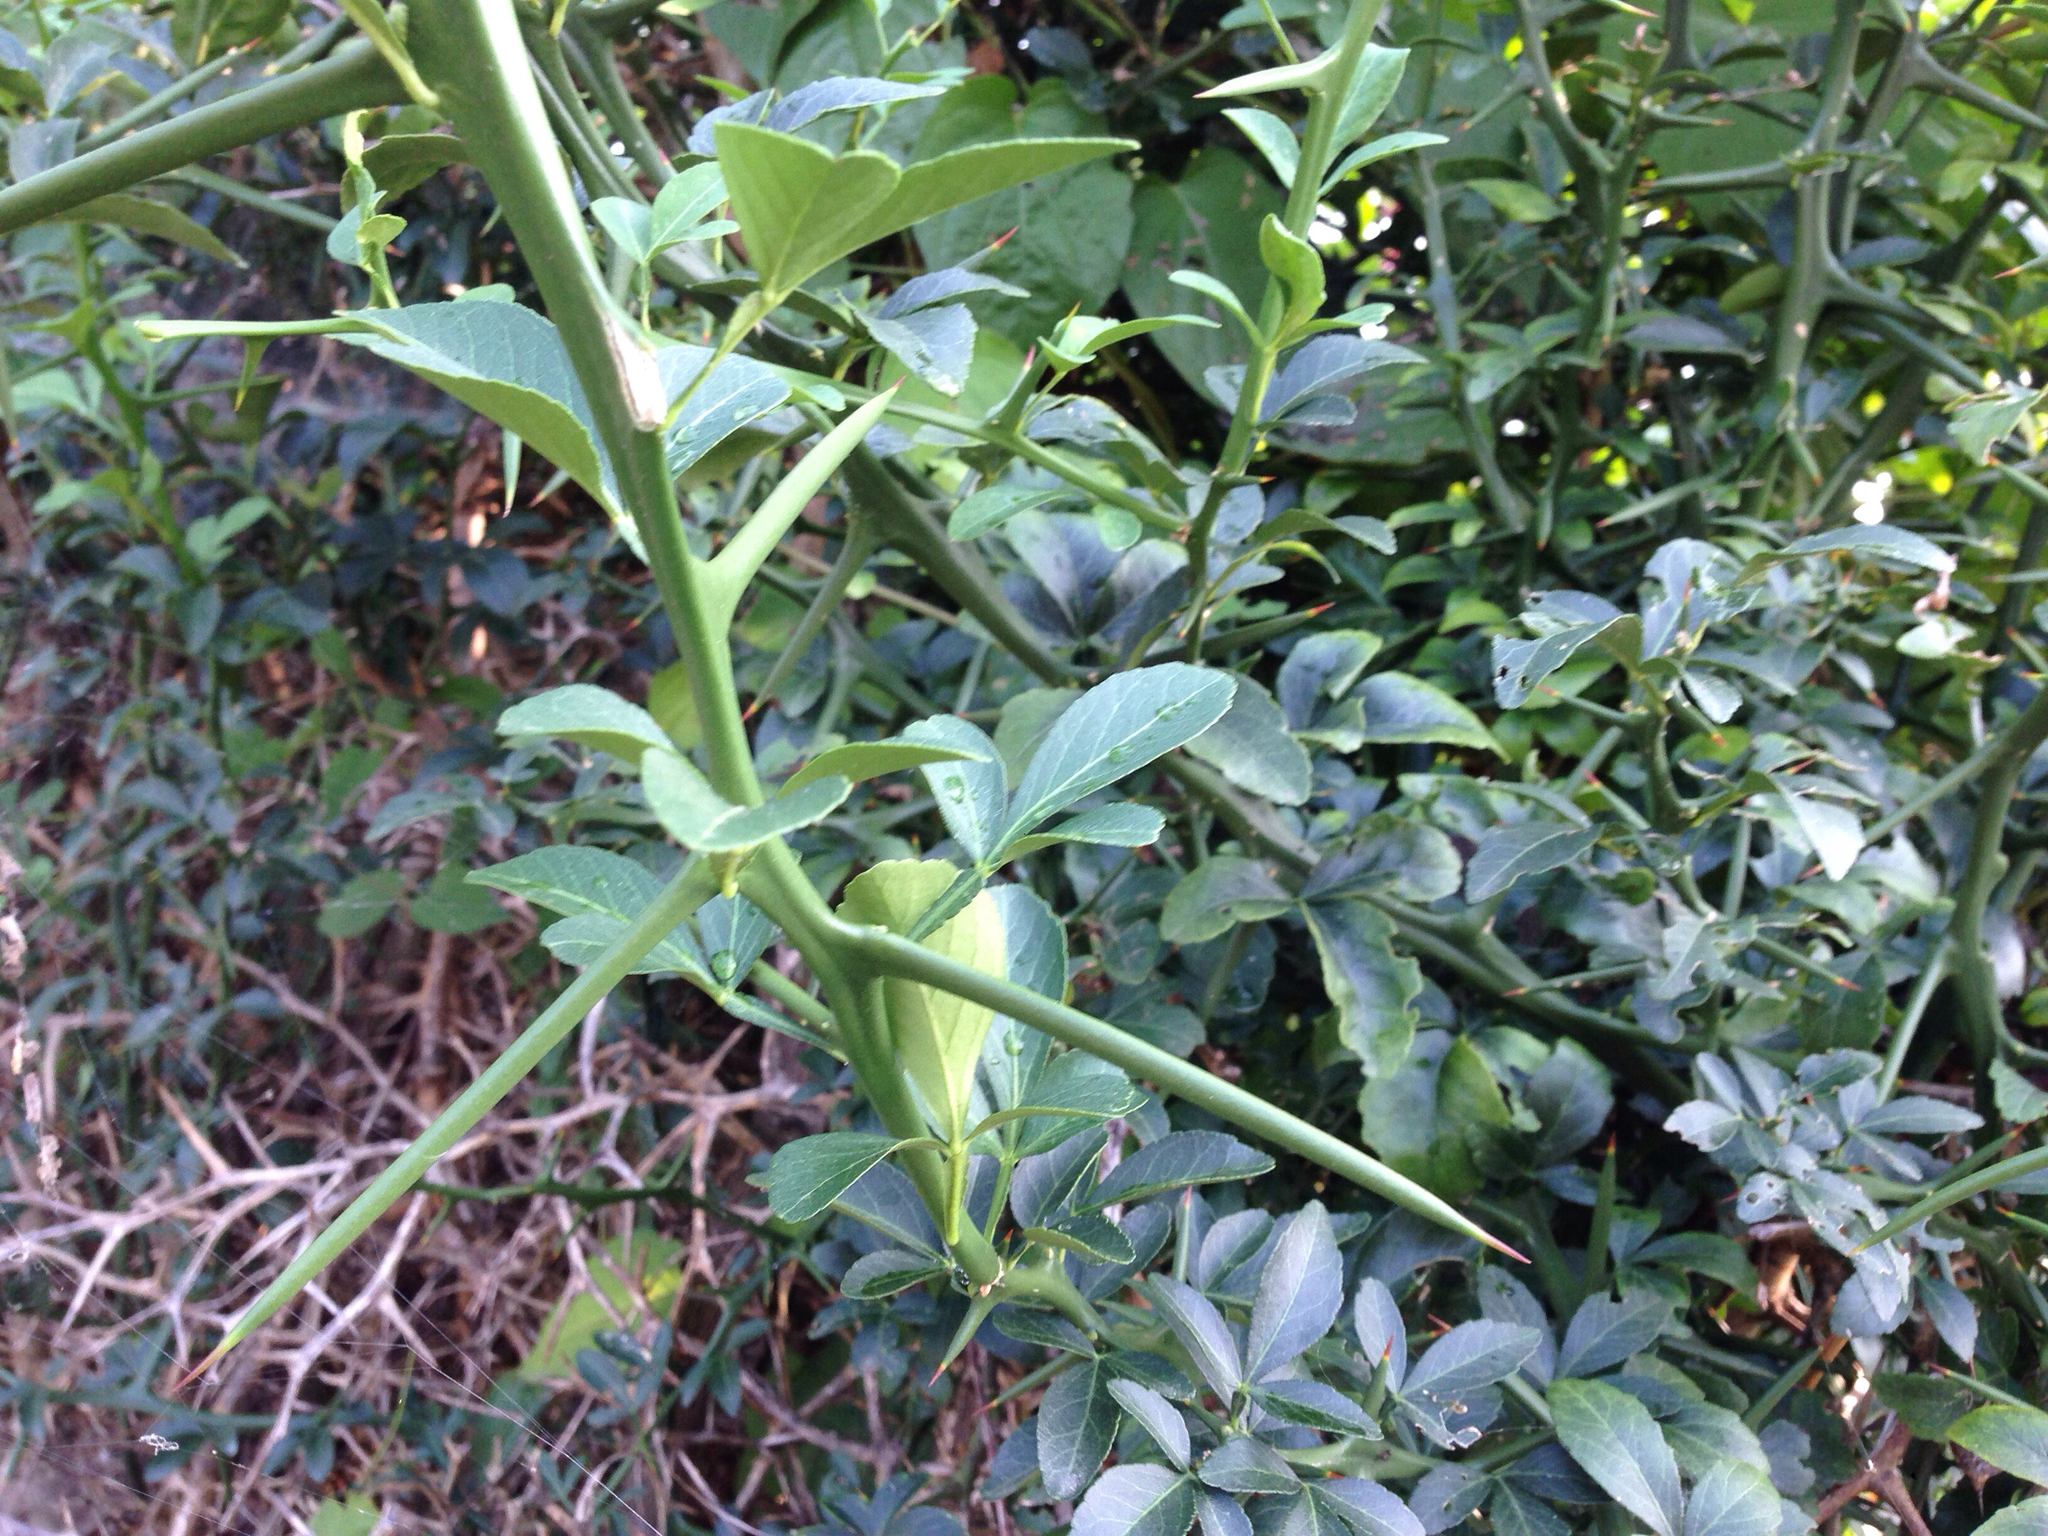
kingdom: Plantae
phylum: Tracheophyta
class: Magnoliopsida
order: Sapindales
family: Rutaceae
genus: Citrus
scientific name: Citrus trifoliata
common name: Japanese bitter-orange
